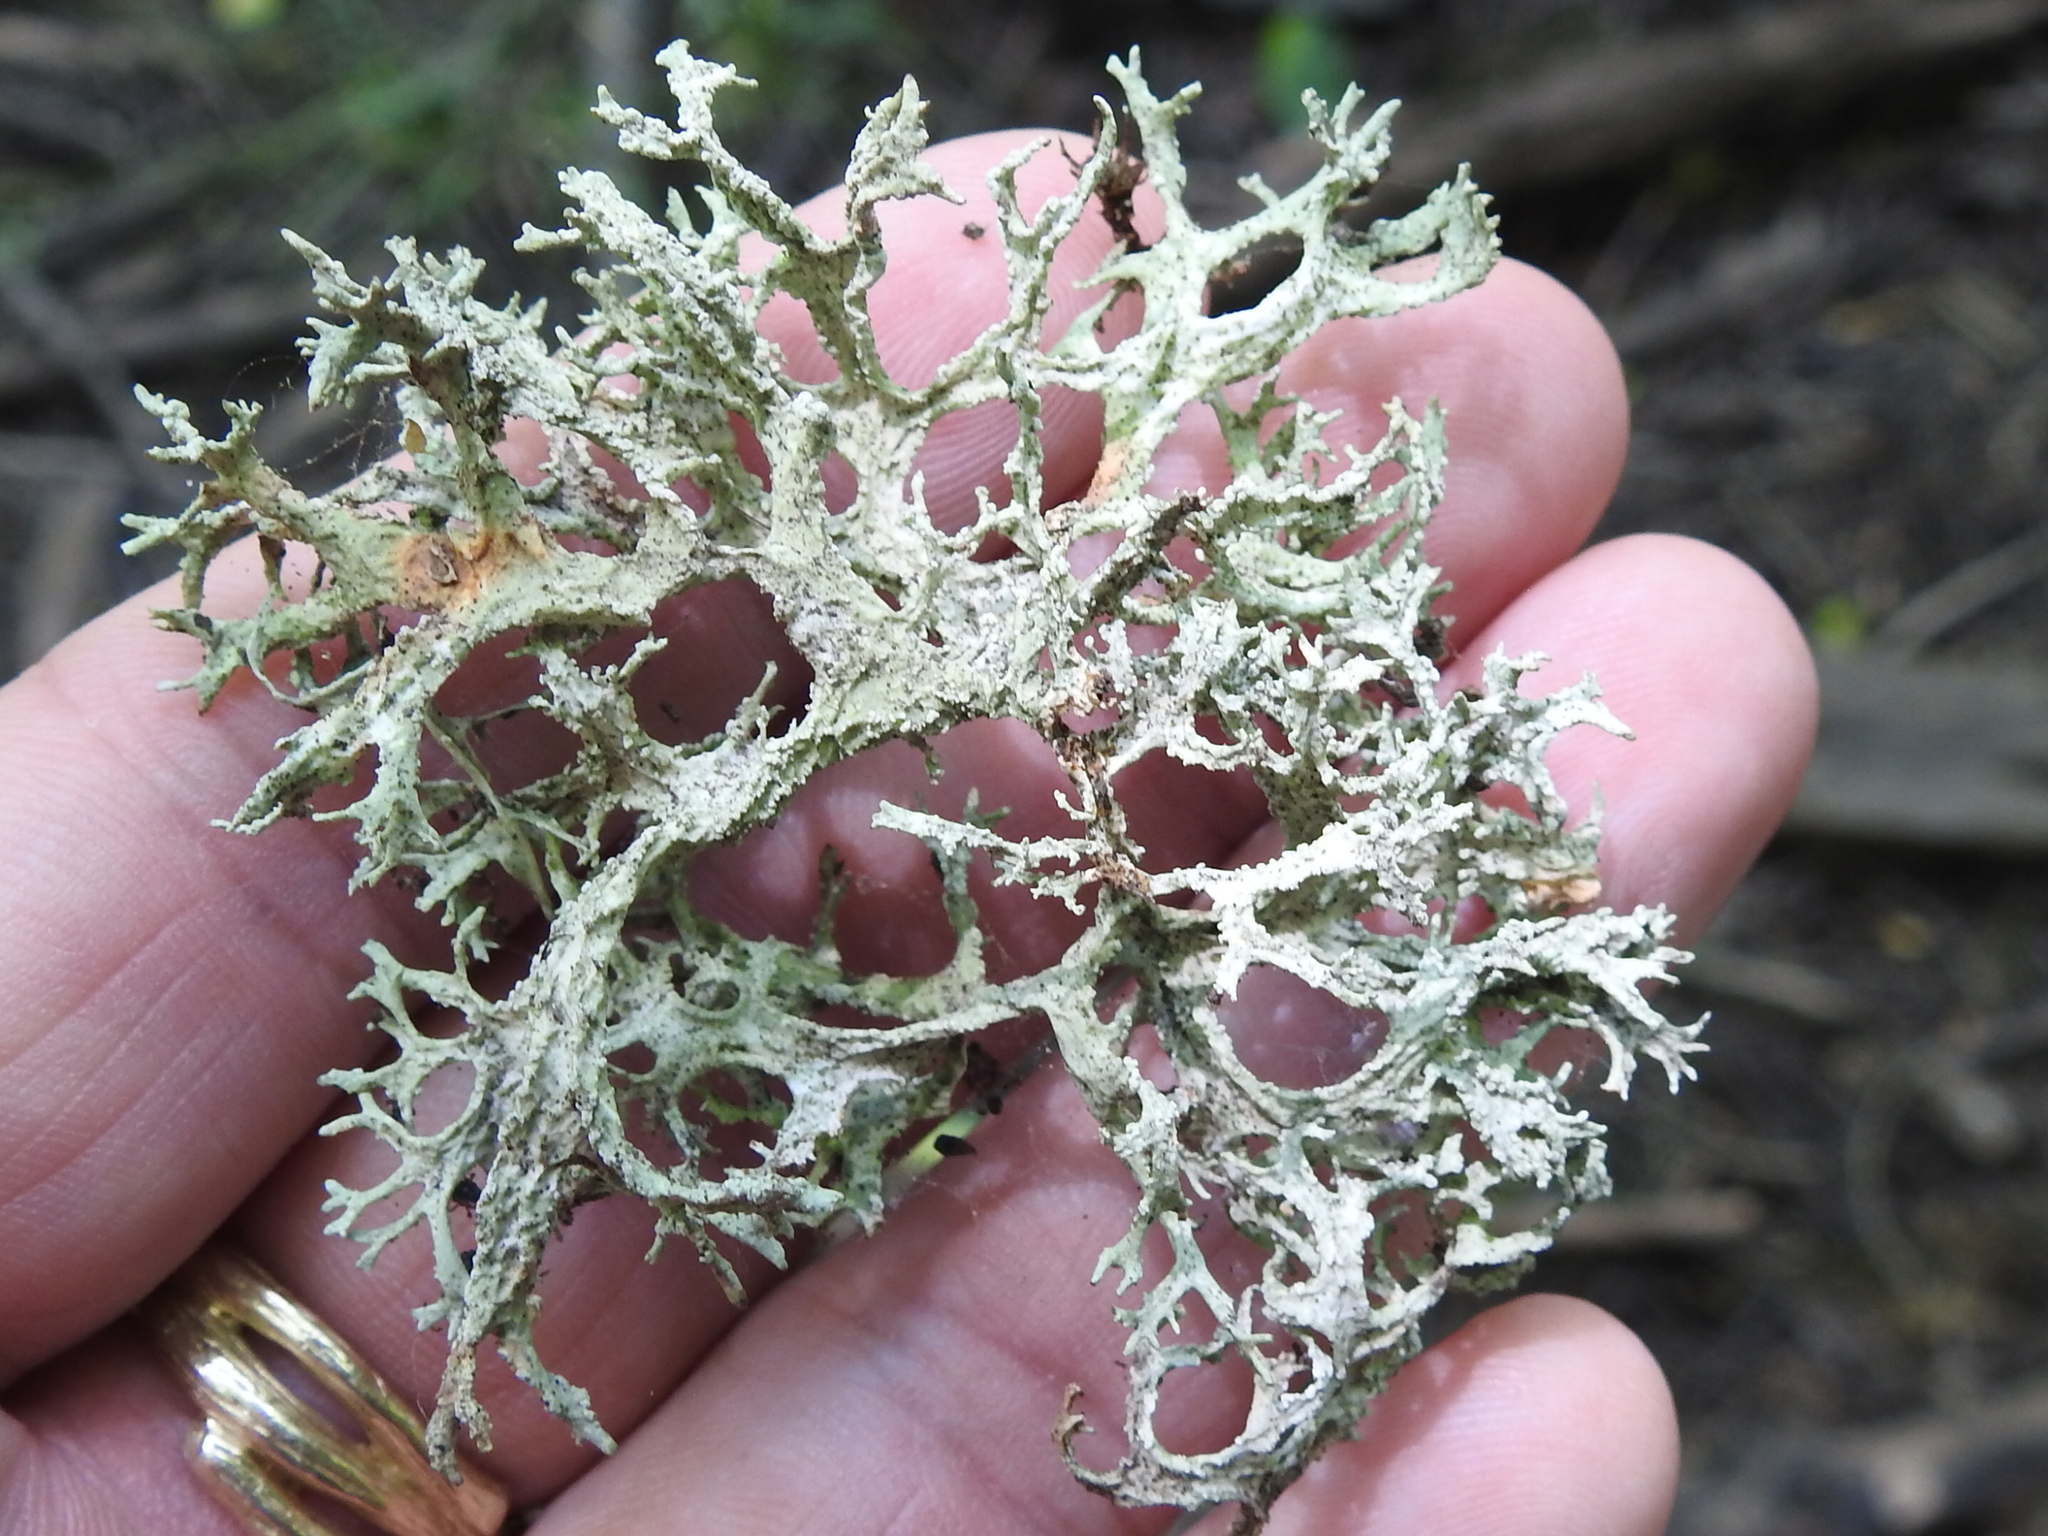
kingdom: Fungi
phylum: Ascomycota
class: Lecanoromycetes
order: Lecanorales
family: Parmeliaceae
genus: Evernia
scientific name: Evernia prunastri
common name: Oak moss
